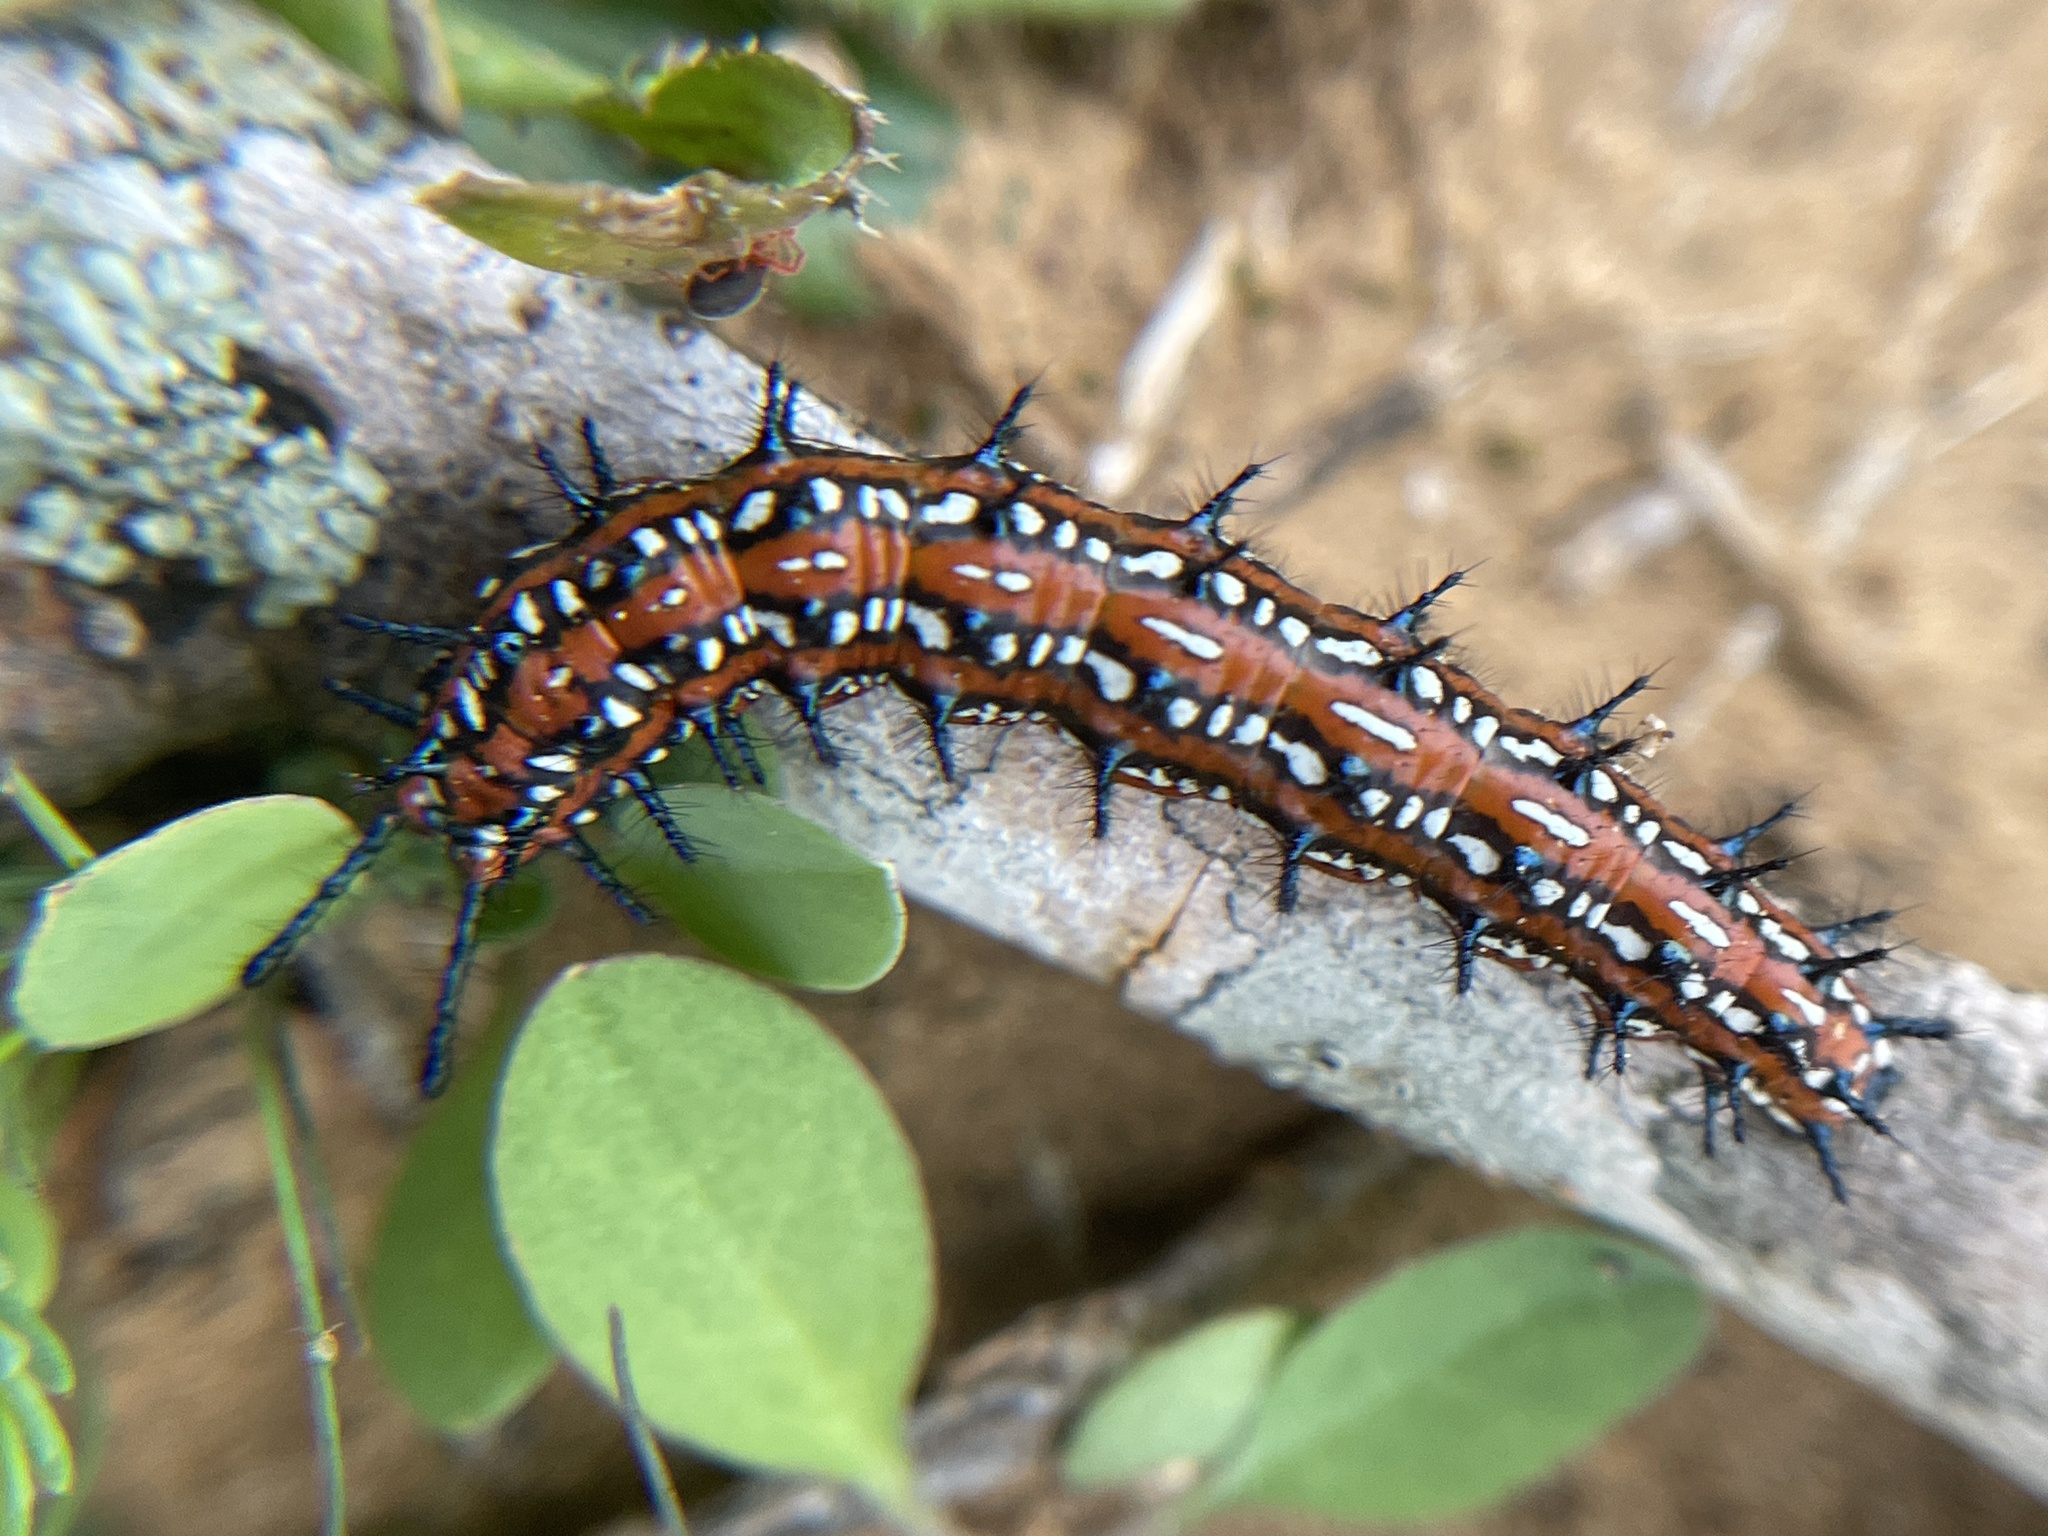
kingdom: Animalia
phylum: Arthropoda
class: Insecta
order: Lepidoptera
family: Nymphalidae
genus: Euptoieta
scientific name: Euptoieta claudia
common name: Variegated fritillary
